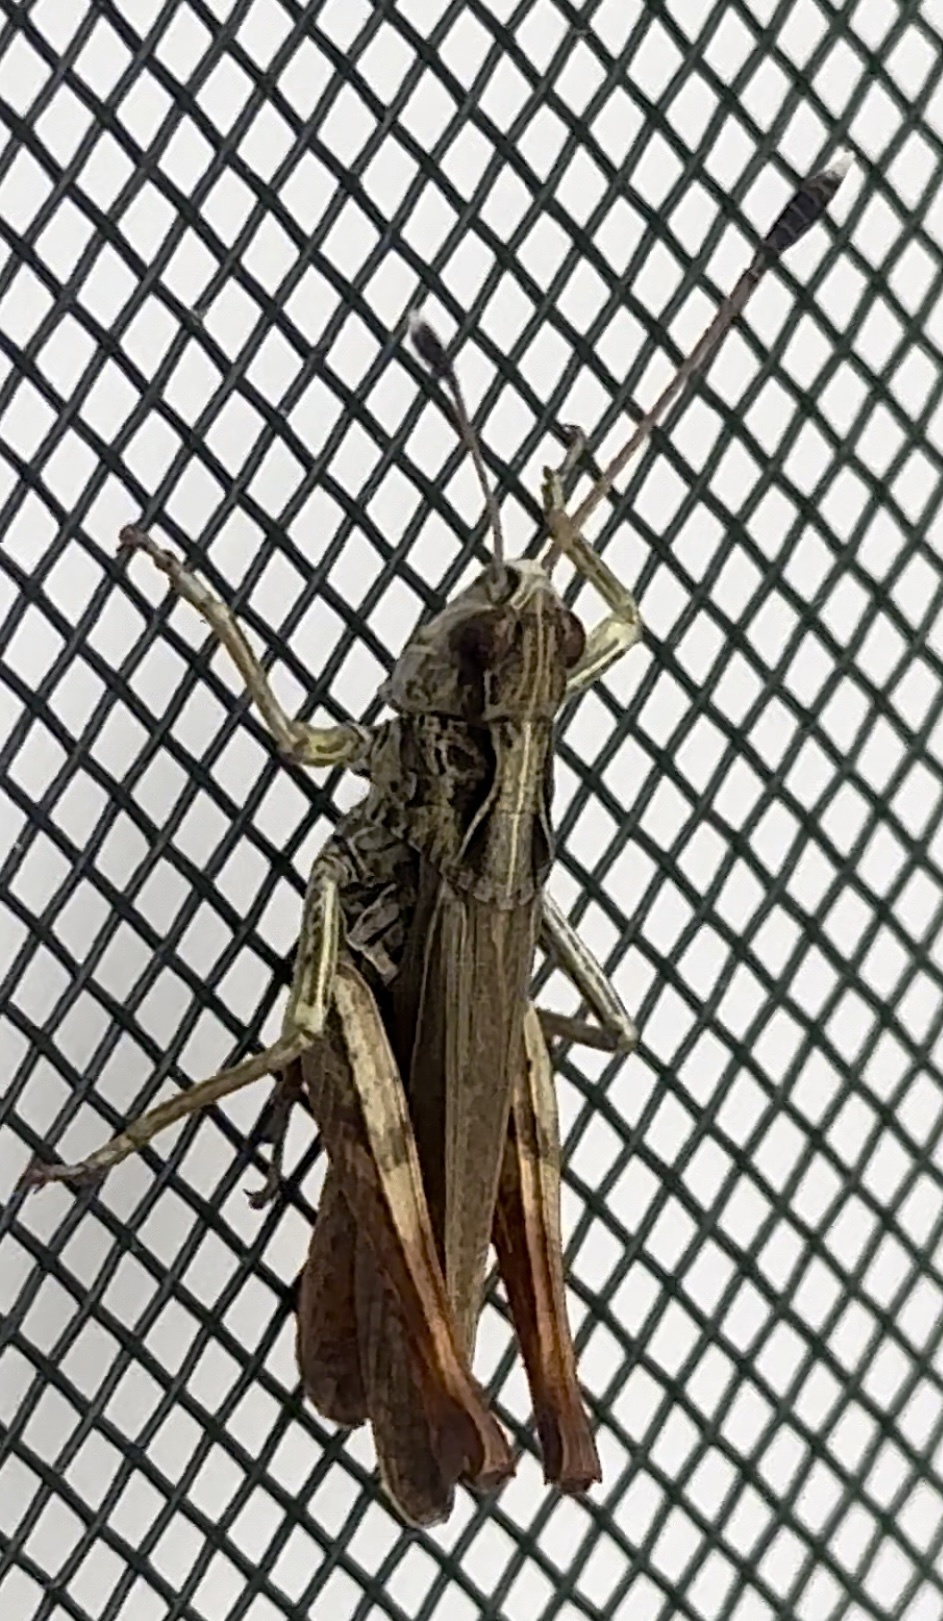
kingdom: Animalia
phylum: Arthropoda
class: Insecta
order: Orthoptera
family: Acrididae
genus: Gomphocerippus
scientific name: Gomphocerippus rufus
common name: Rufous grasshopper
